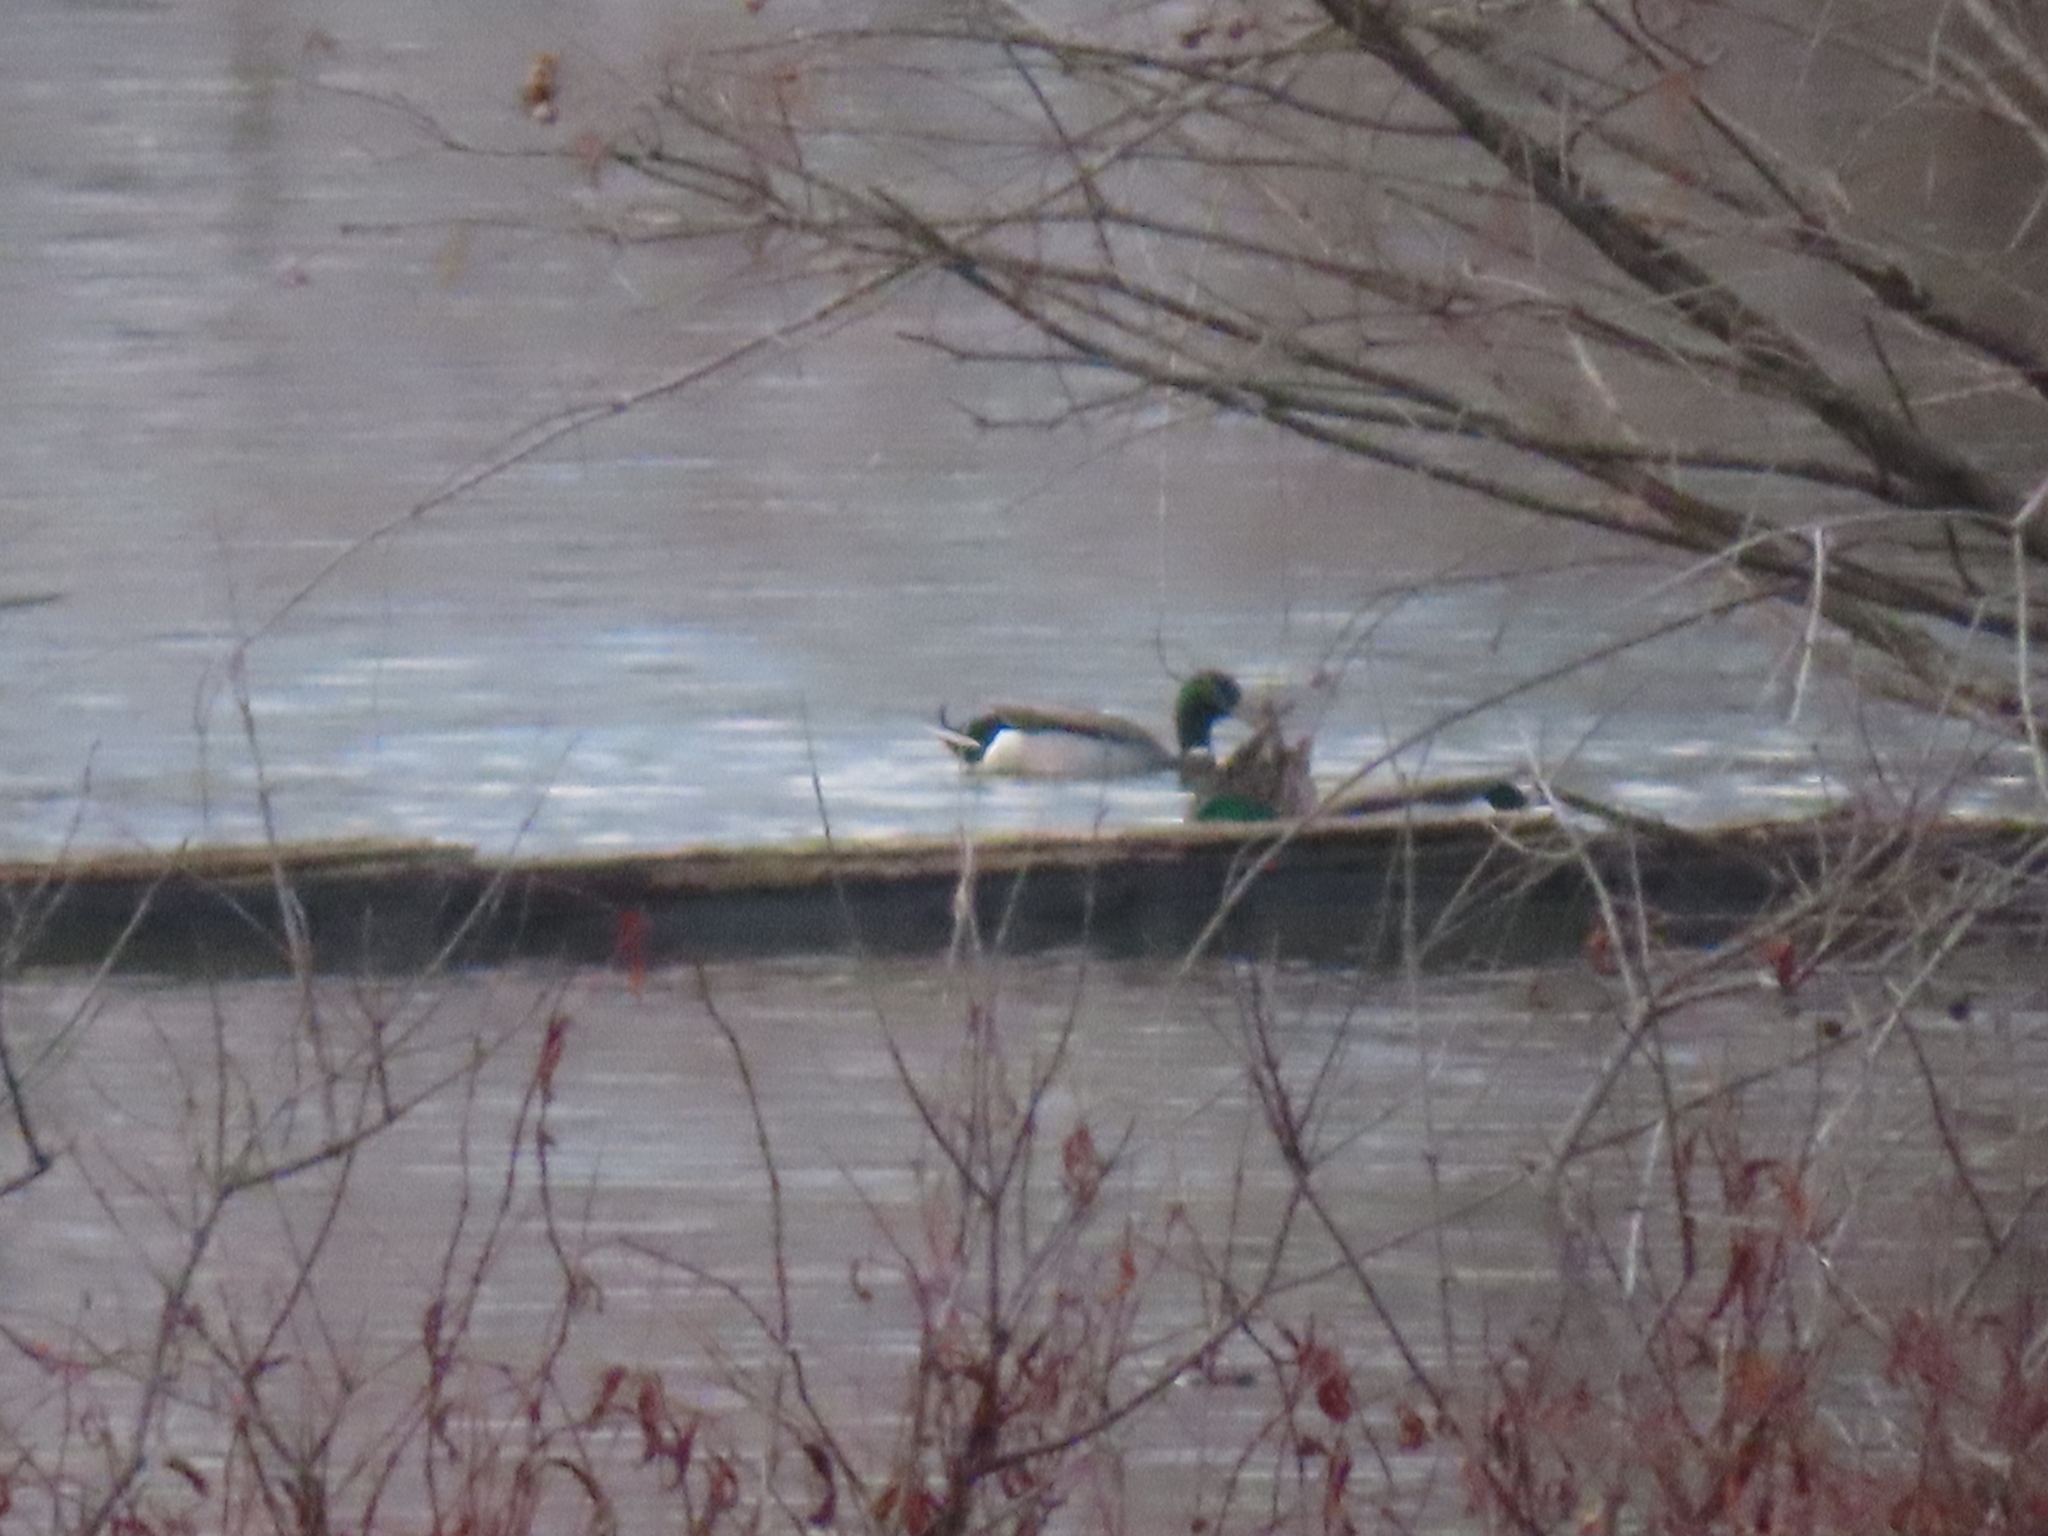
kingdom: Animalia
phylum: Chordata
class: Aves
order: Anseriformes
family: Anatidae
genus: Anas
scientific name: Anas platyrhynchos
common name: Mallard
